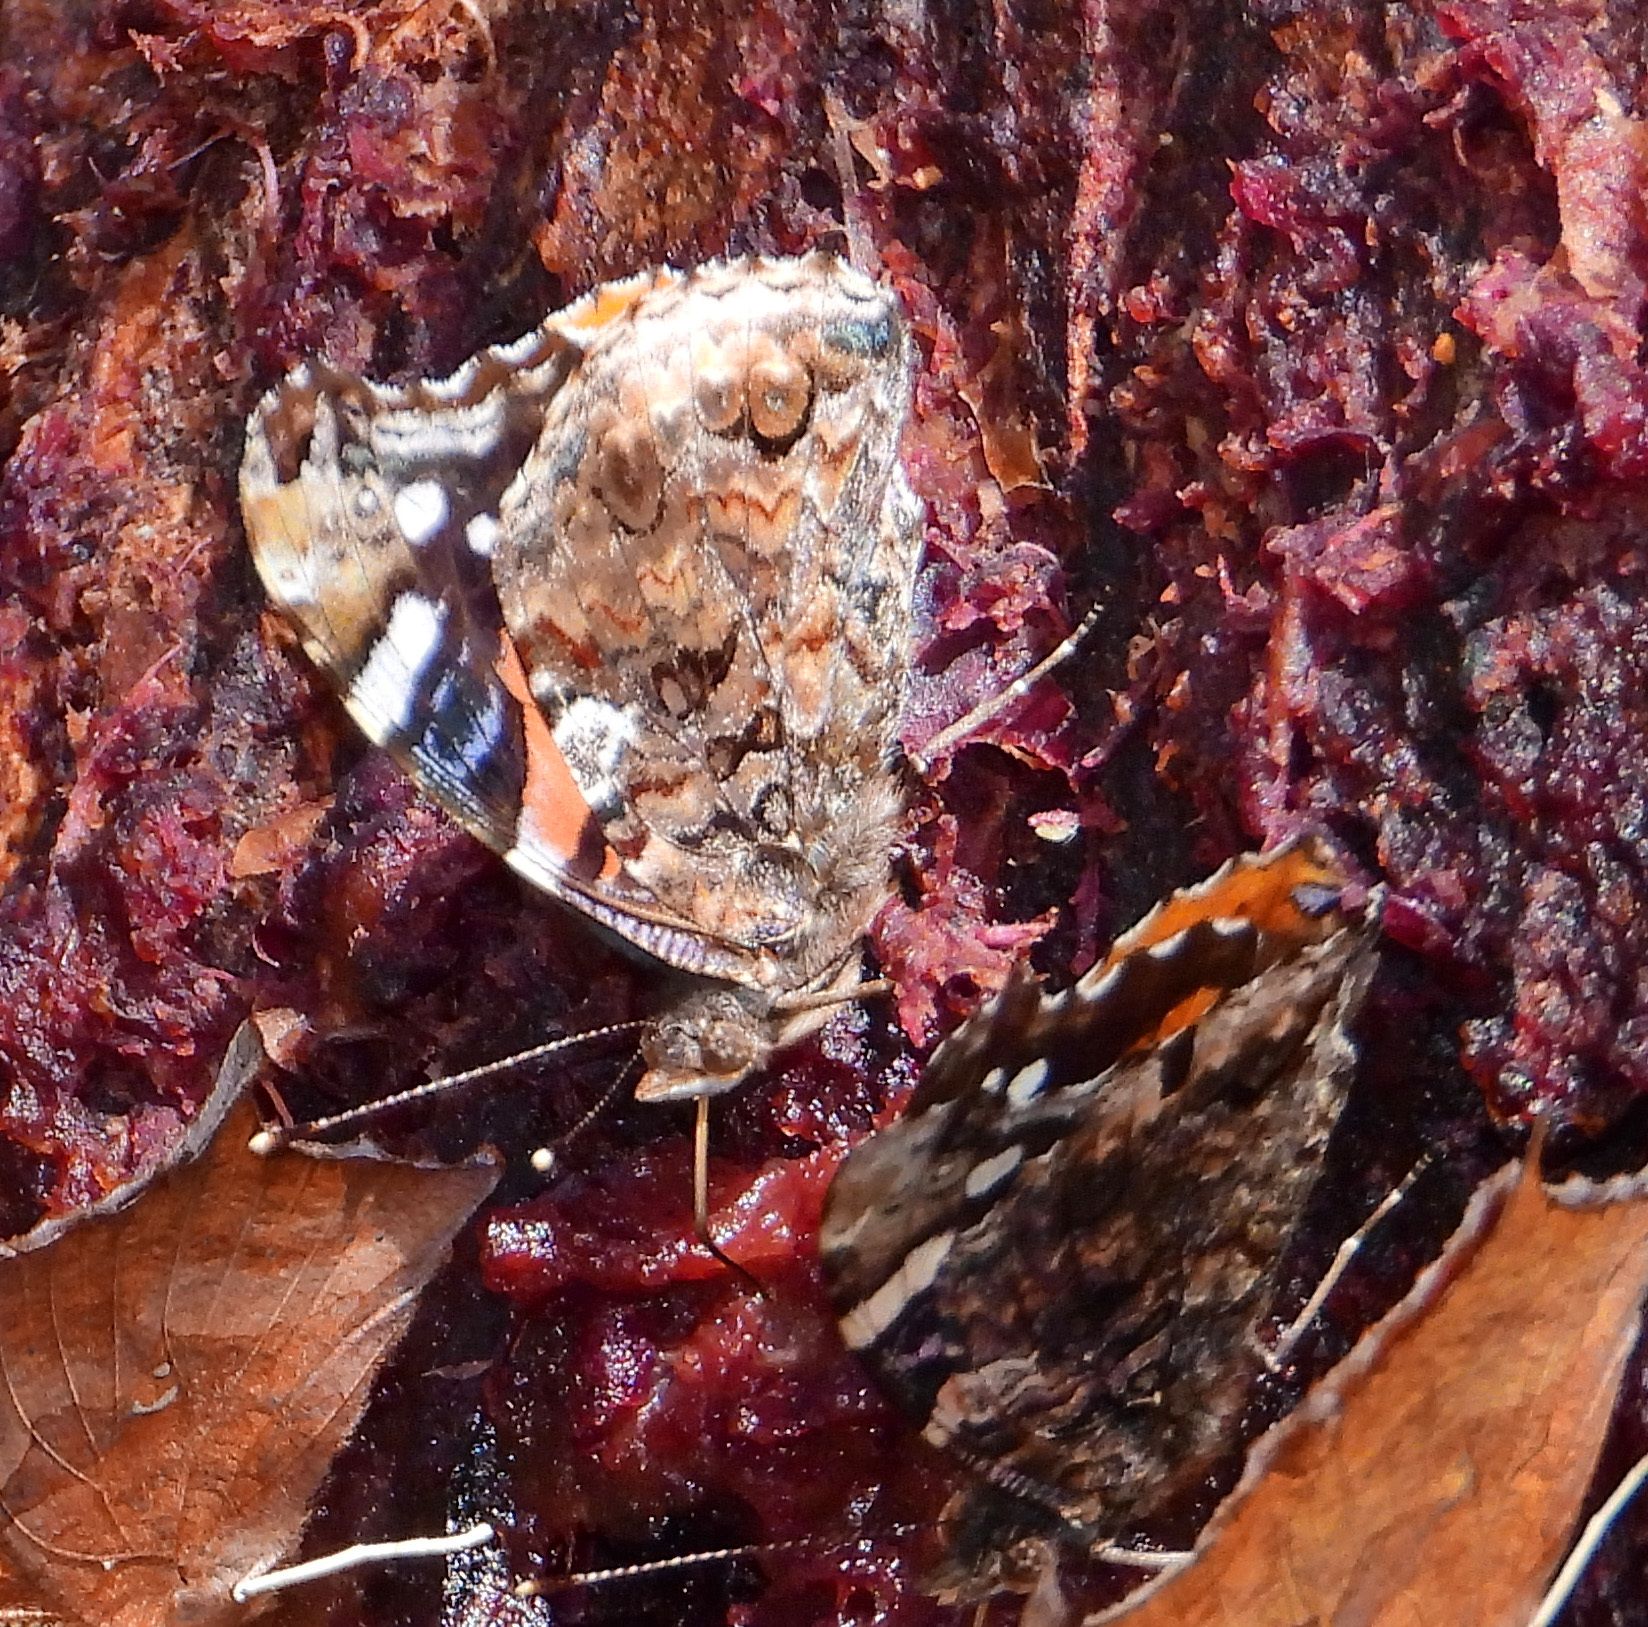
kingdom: Animalia
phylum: Arthropoda
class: Insecta
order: Lepidoptera
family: Nymphalidae
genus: Vanessa
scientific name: Vanessa atalanta
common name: Red admiral
